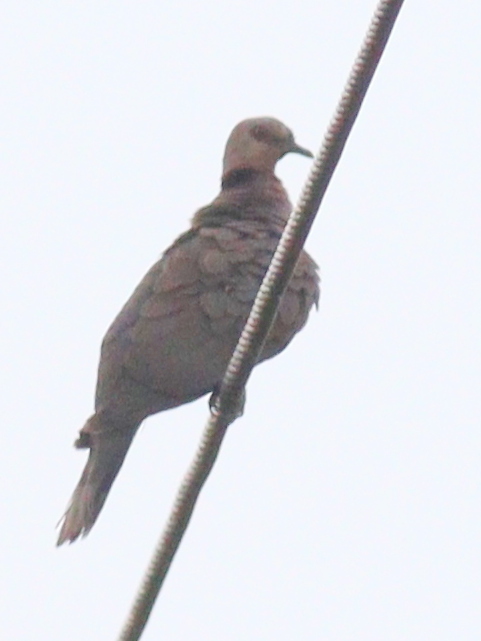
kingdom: Animalia
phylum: Chordata
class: Aves
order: Columbiformes
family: Columbidae
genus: Streptopelia
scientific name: Streptopelia semitorquata
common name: Red-eyed dove
